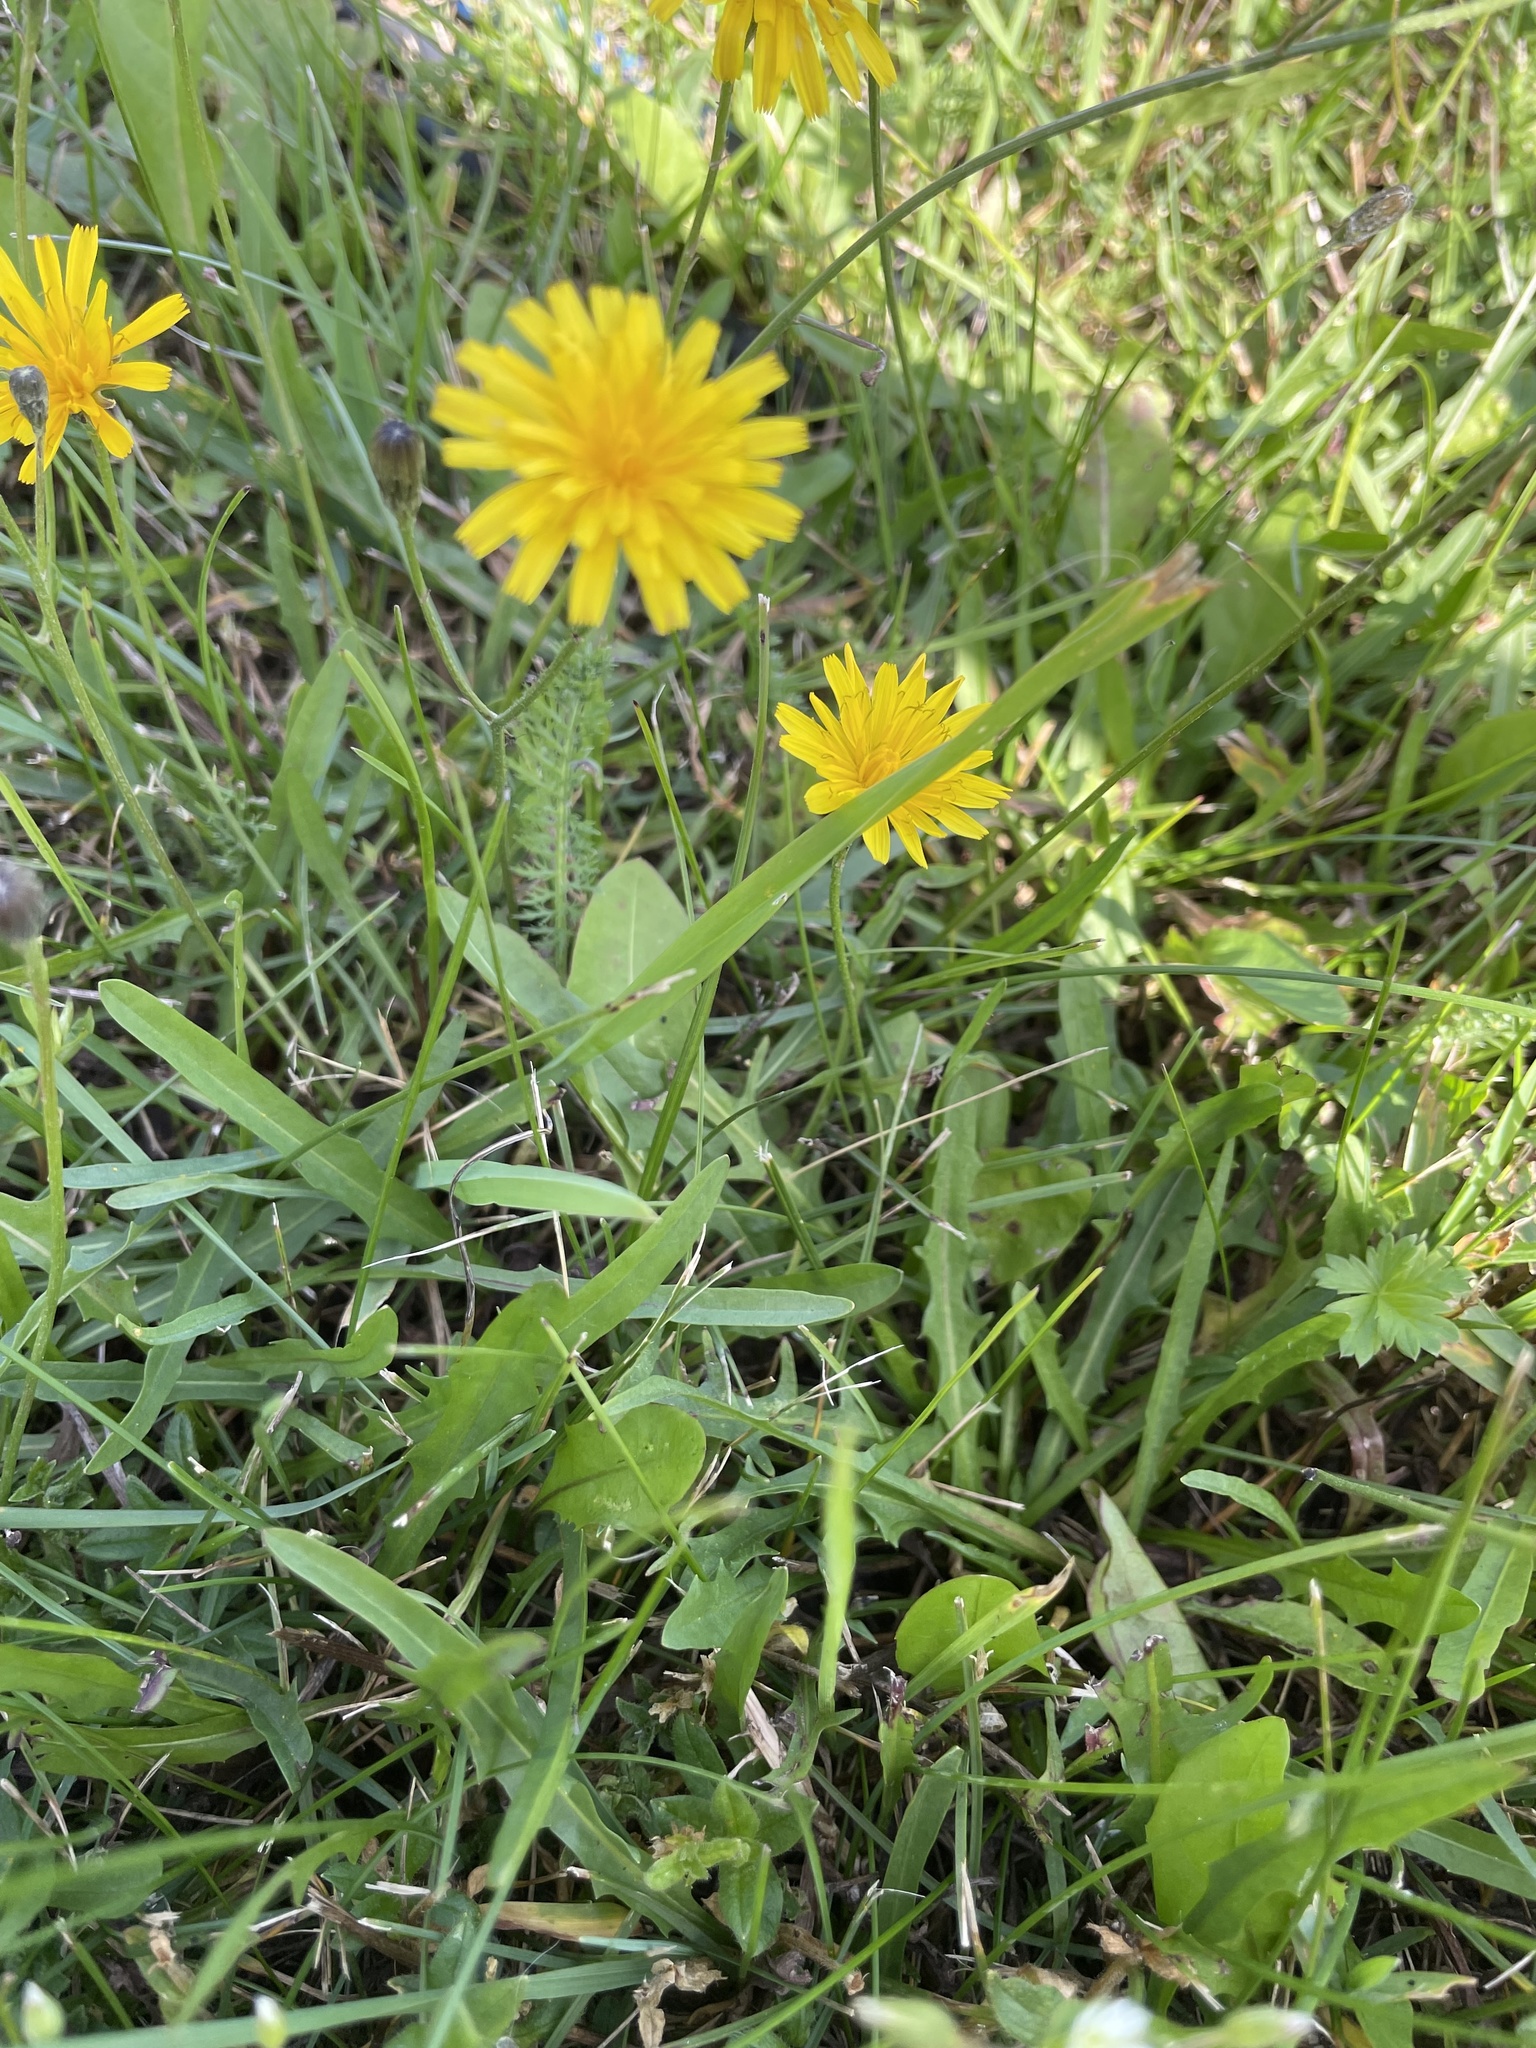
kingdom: Plantae
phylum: Tracheophyta
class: Magnoliopsida
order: Asterales
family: Asteraceae
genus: Scorzoneroides
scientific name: Scorzoneroides autumnalis
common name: Autumn hawkbit
